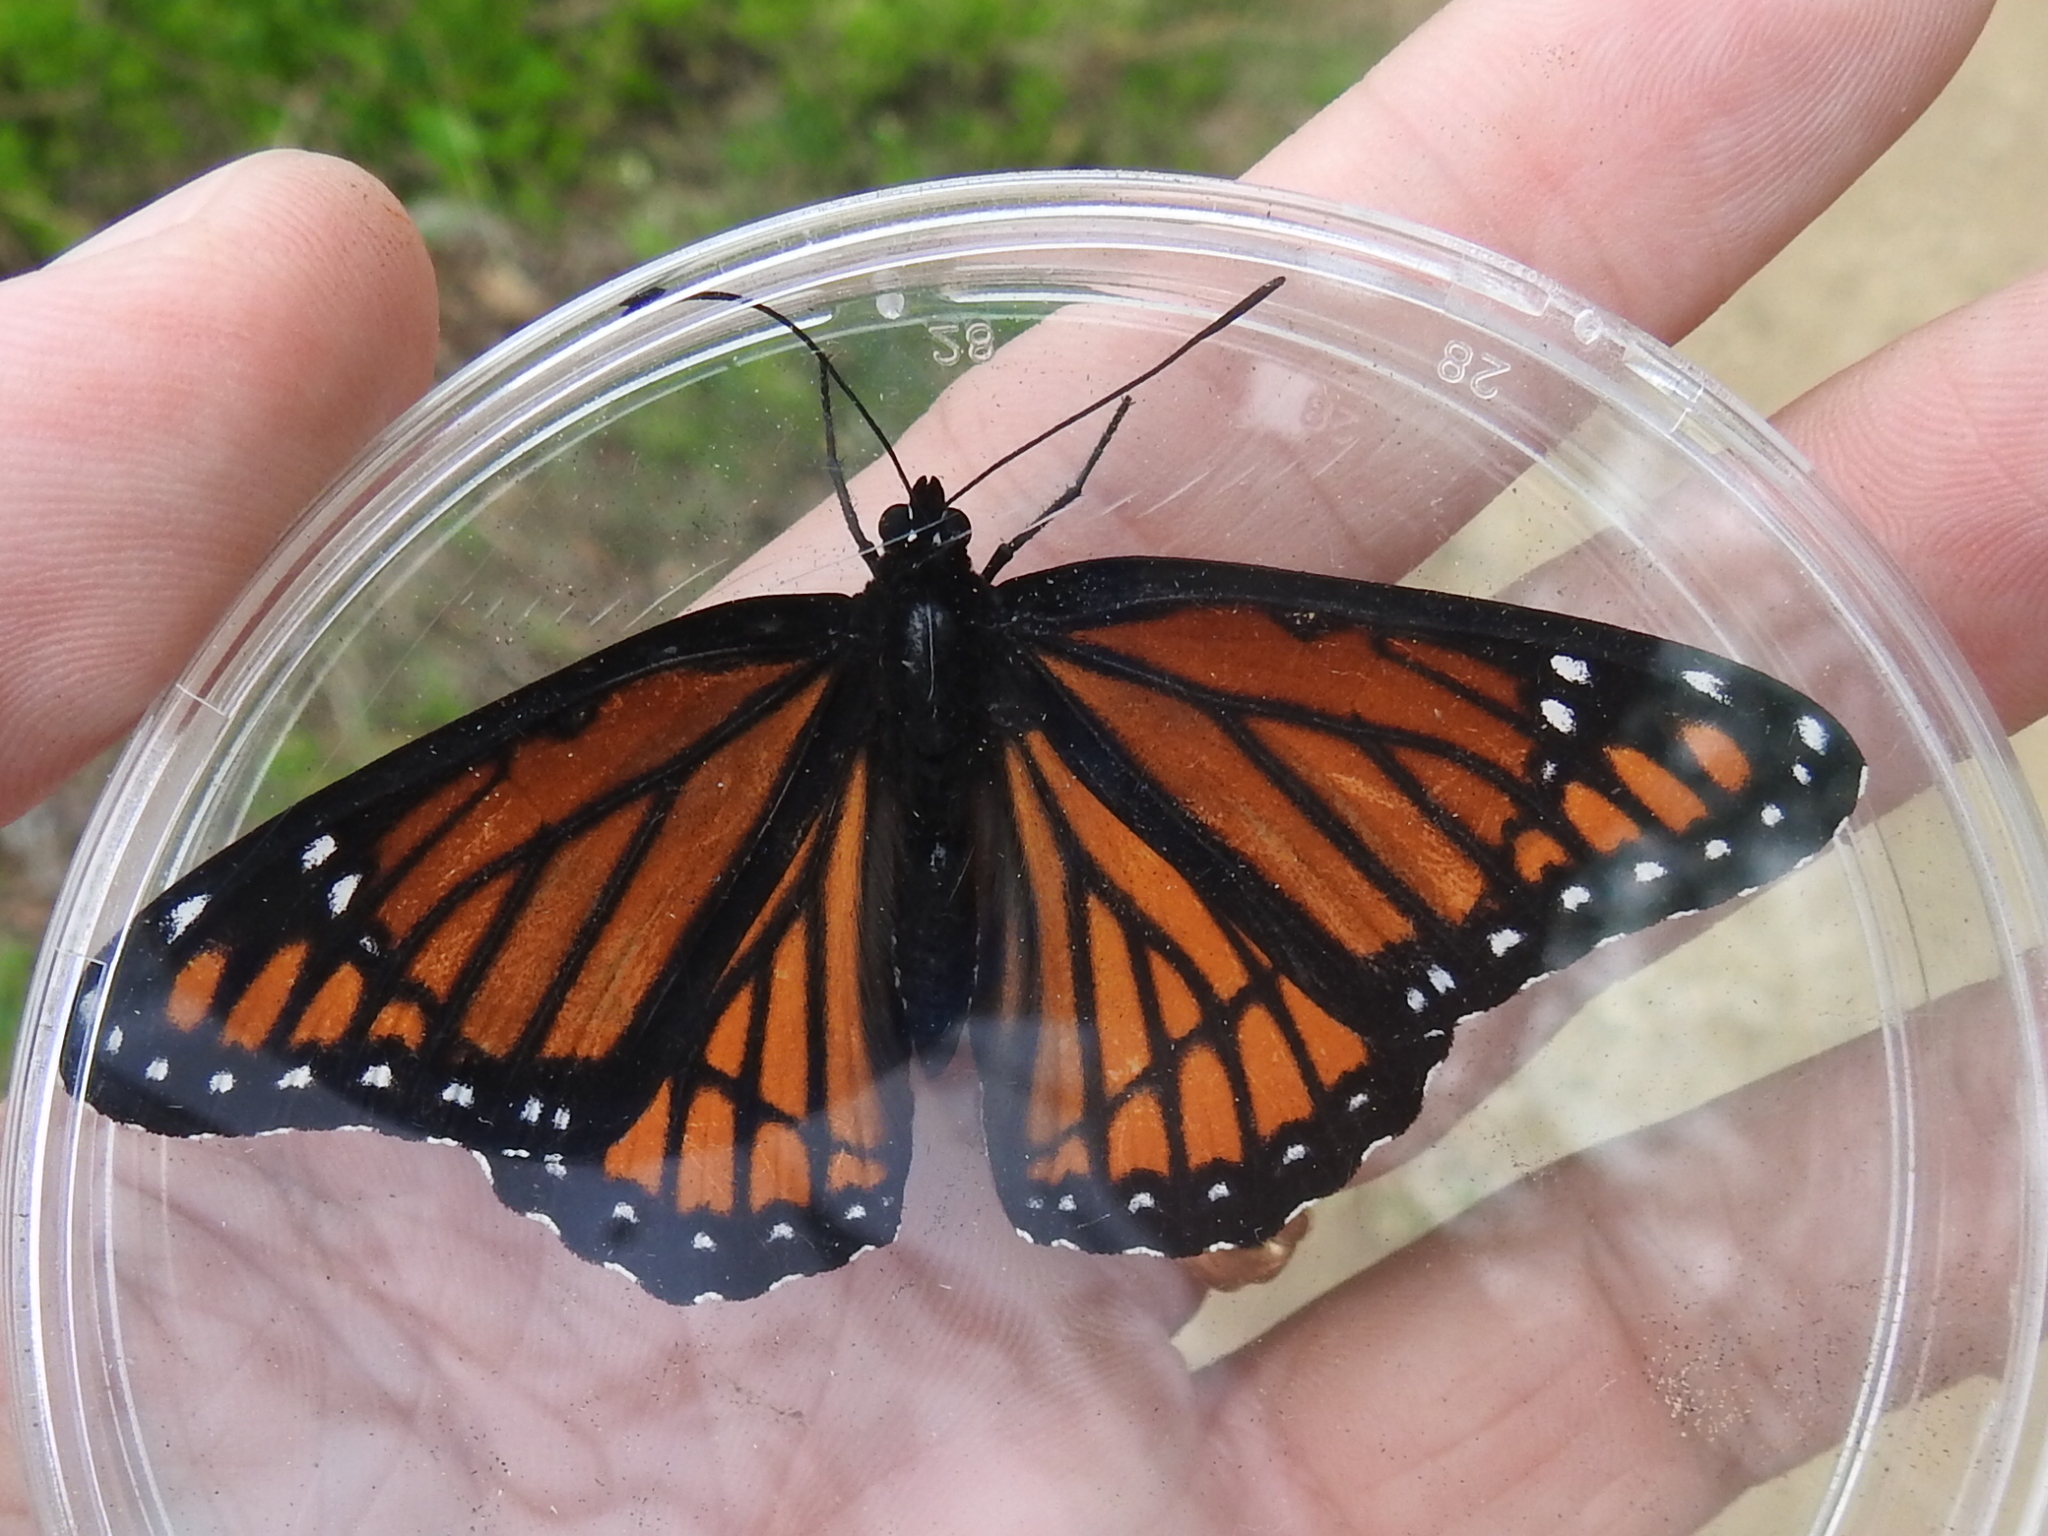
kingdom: Animalia
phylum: Arthropoda
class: Insecta
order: Lepidoptera
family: Nymphalidae
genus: Limenitis
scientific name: Limenitis archippus
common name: Viceroy
